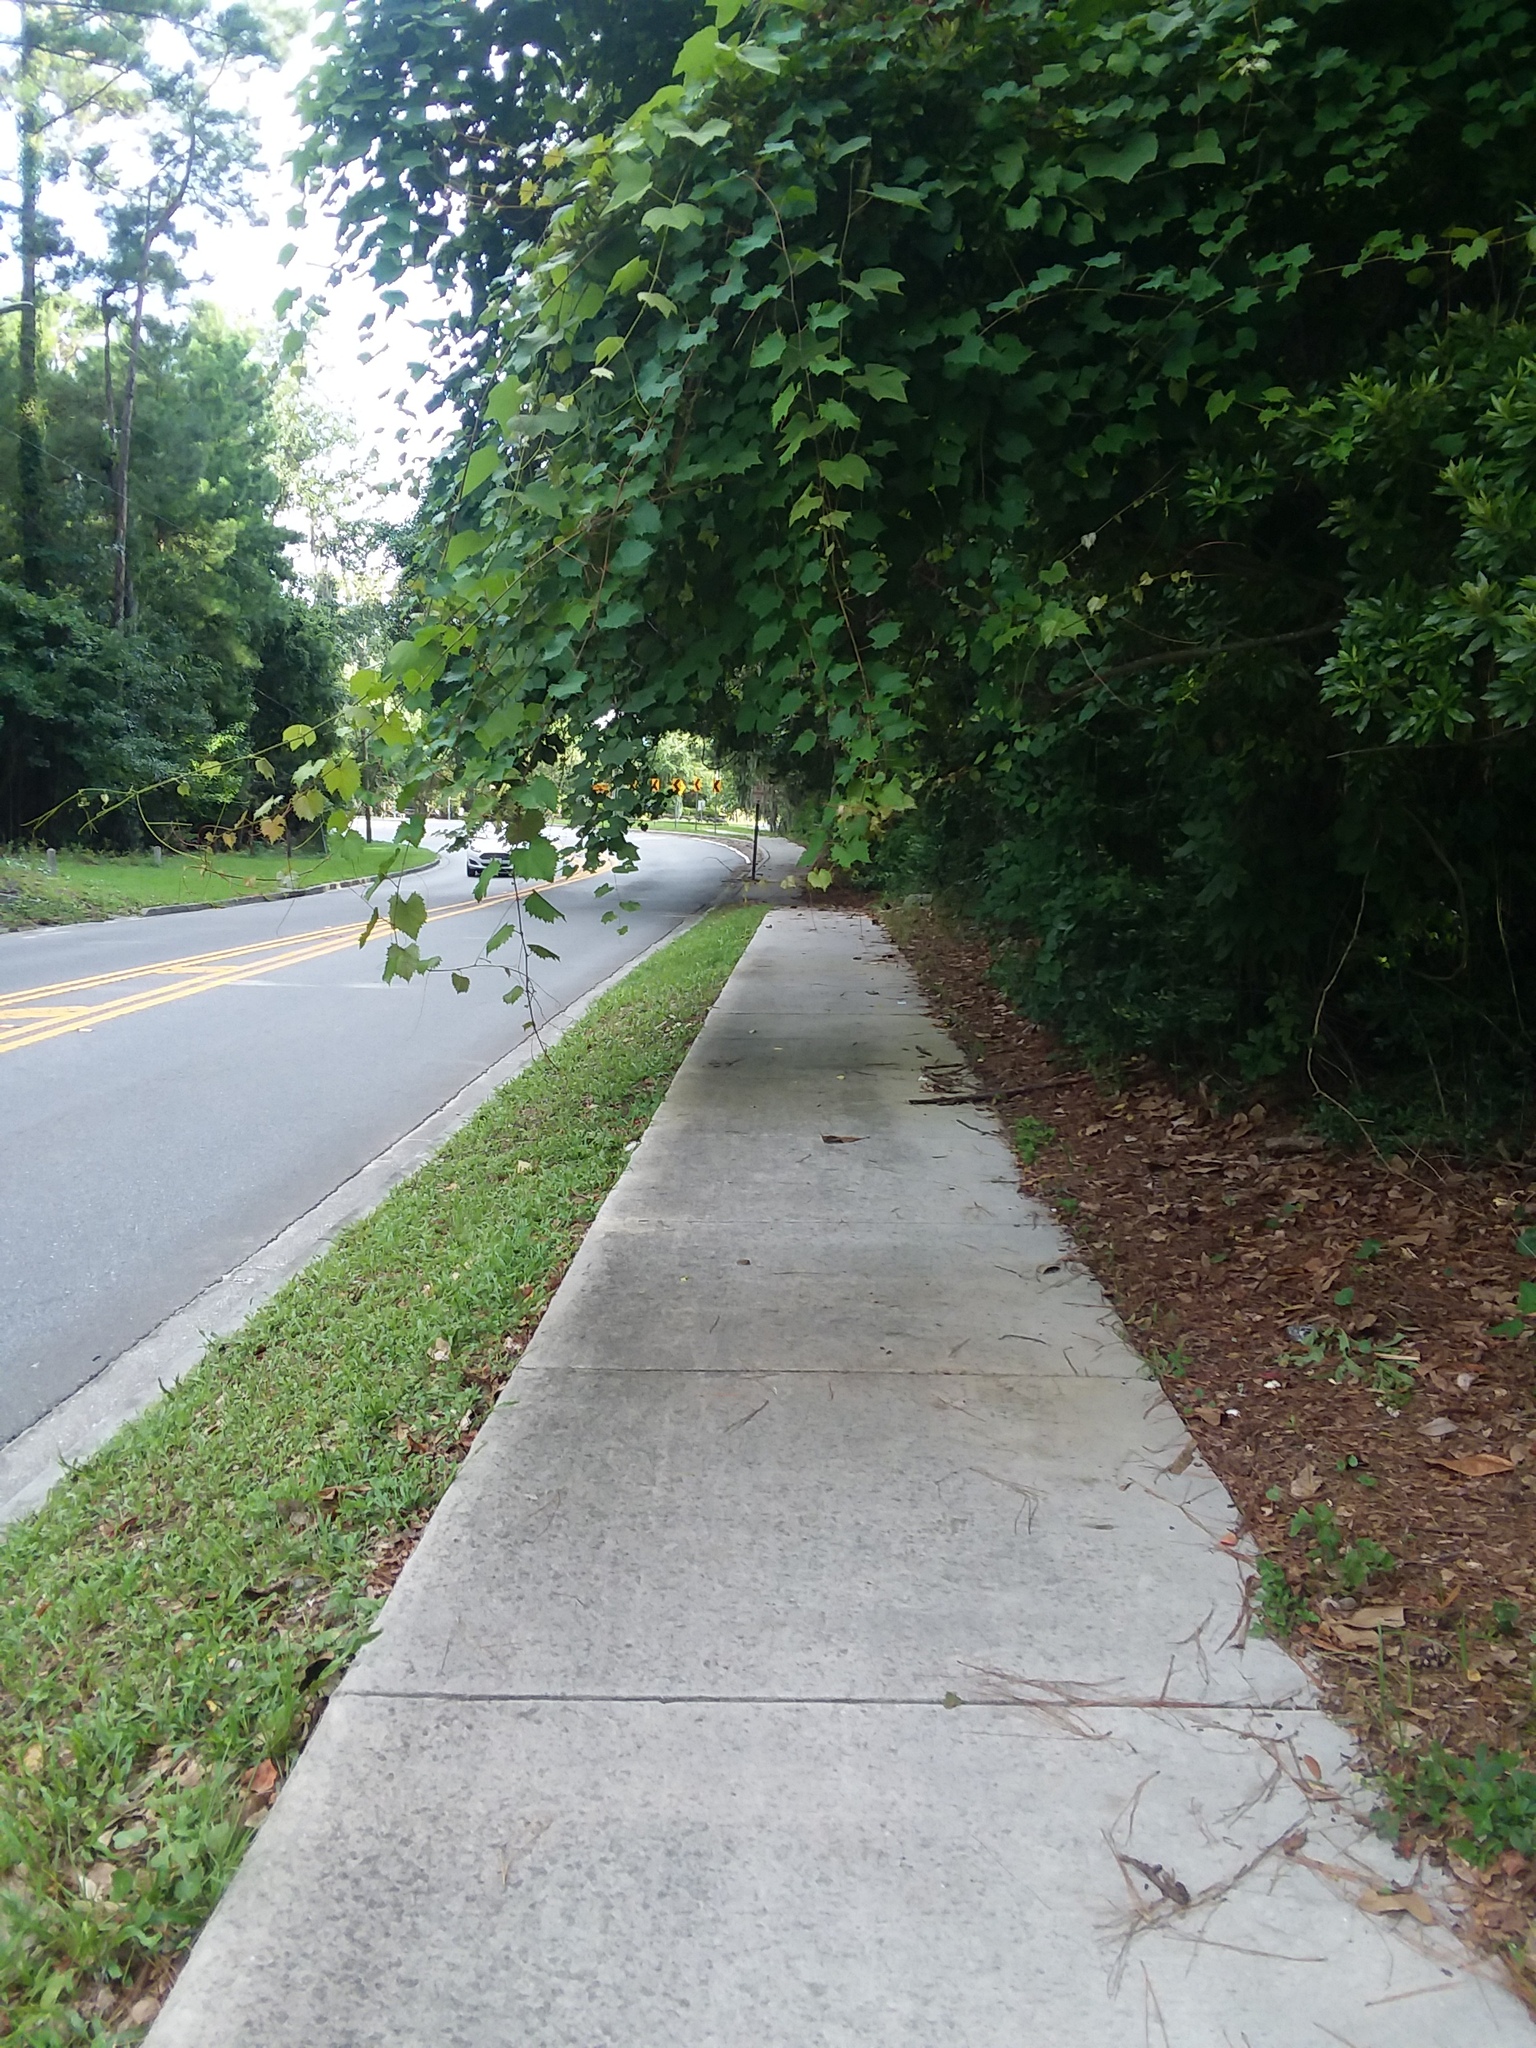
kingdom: Plantae
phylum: Tracheophyta
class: Magnoliopsida
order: Vitales
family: Vitaceae
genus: Vitis
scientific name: Vitis rotundifolia
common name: Muscadine grape
